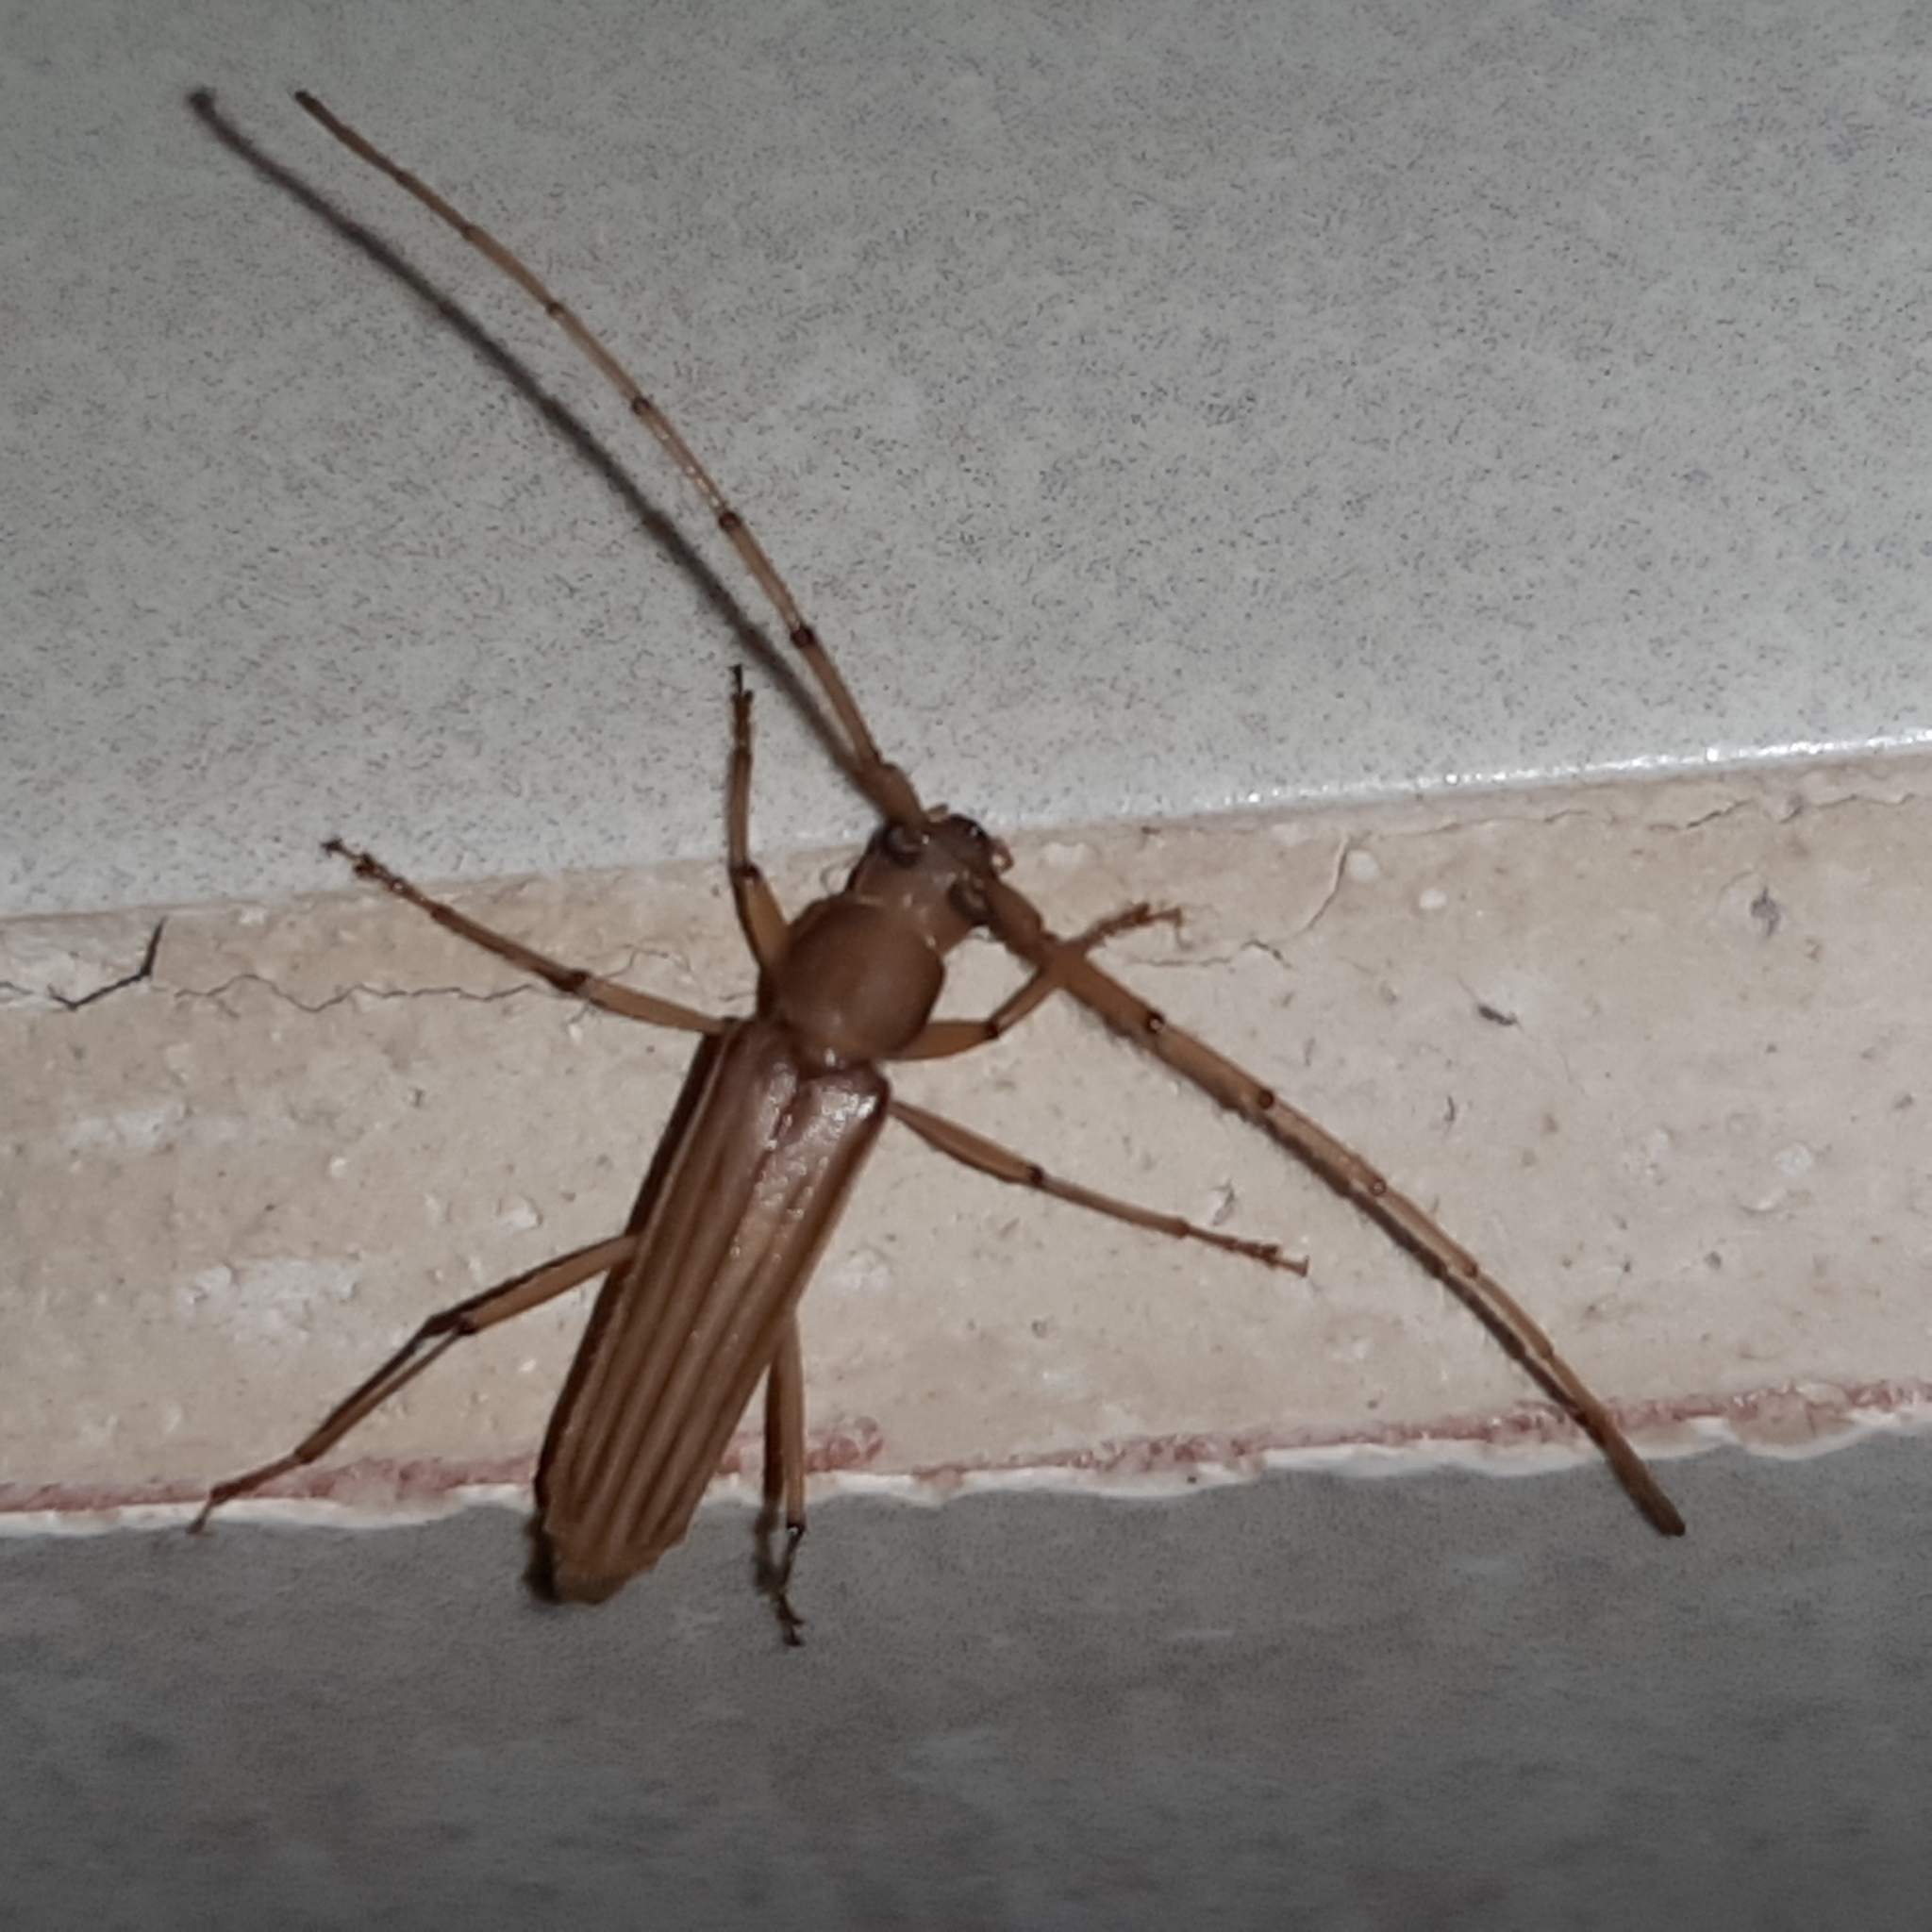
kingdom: Animalia
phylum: Arthropoda
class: Insecta
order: Coleoptera
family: Cerambycidae
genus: Malacopterus
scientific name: Malacopterus tenellus
